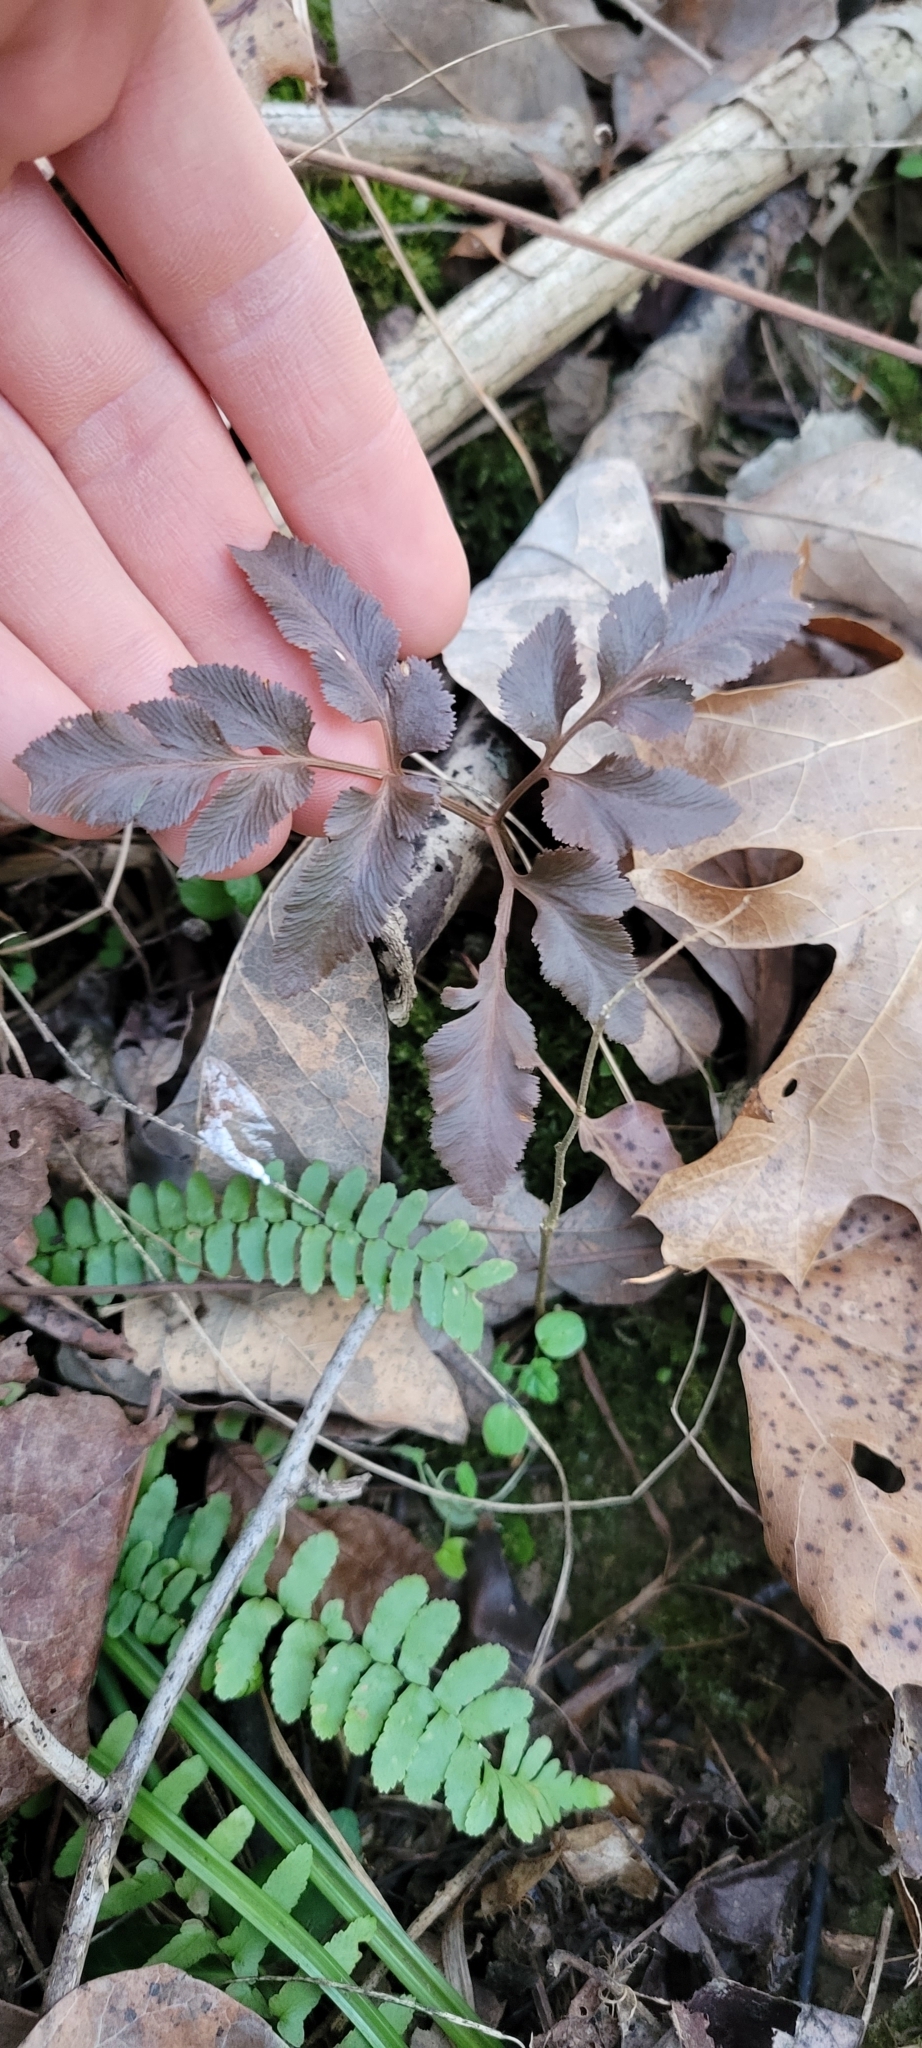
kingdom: Plantae
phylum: Tracheophyta
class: Polypodiopsida
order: Ophioglossales
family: Ophioglossaceae
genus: Sceptridium
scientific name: Sceptridium dissectum
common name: Cut-leaved grapefern
